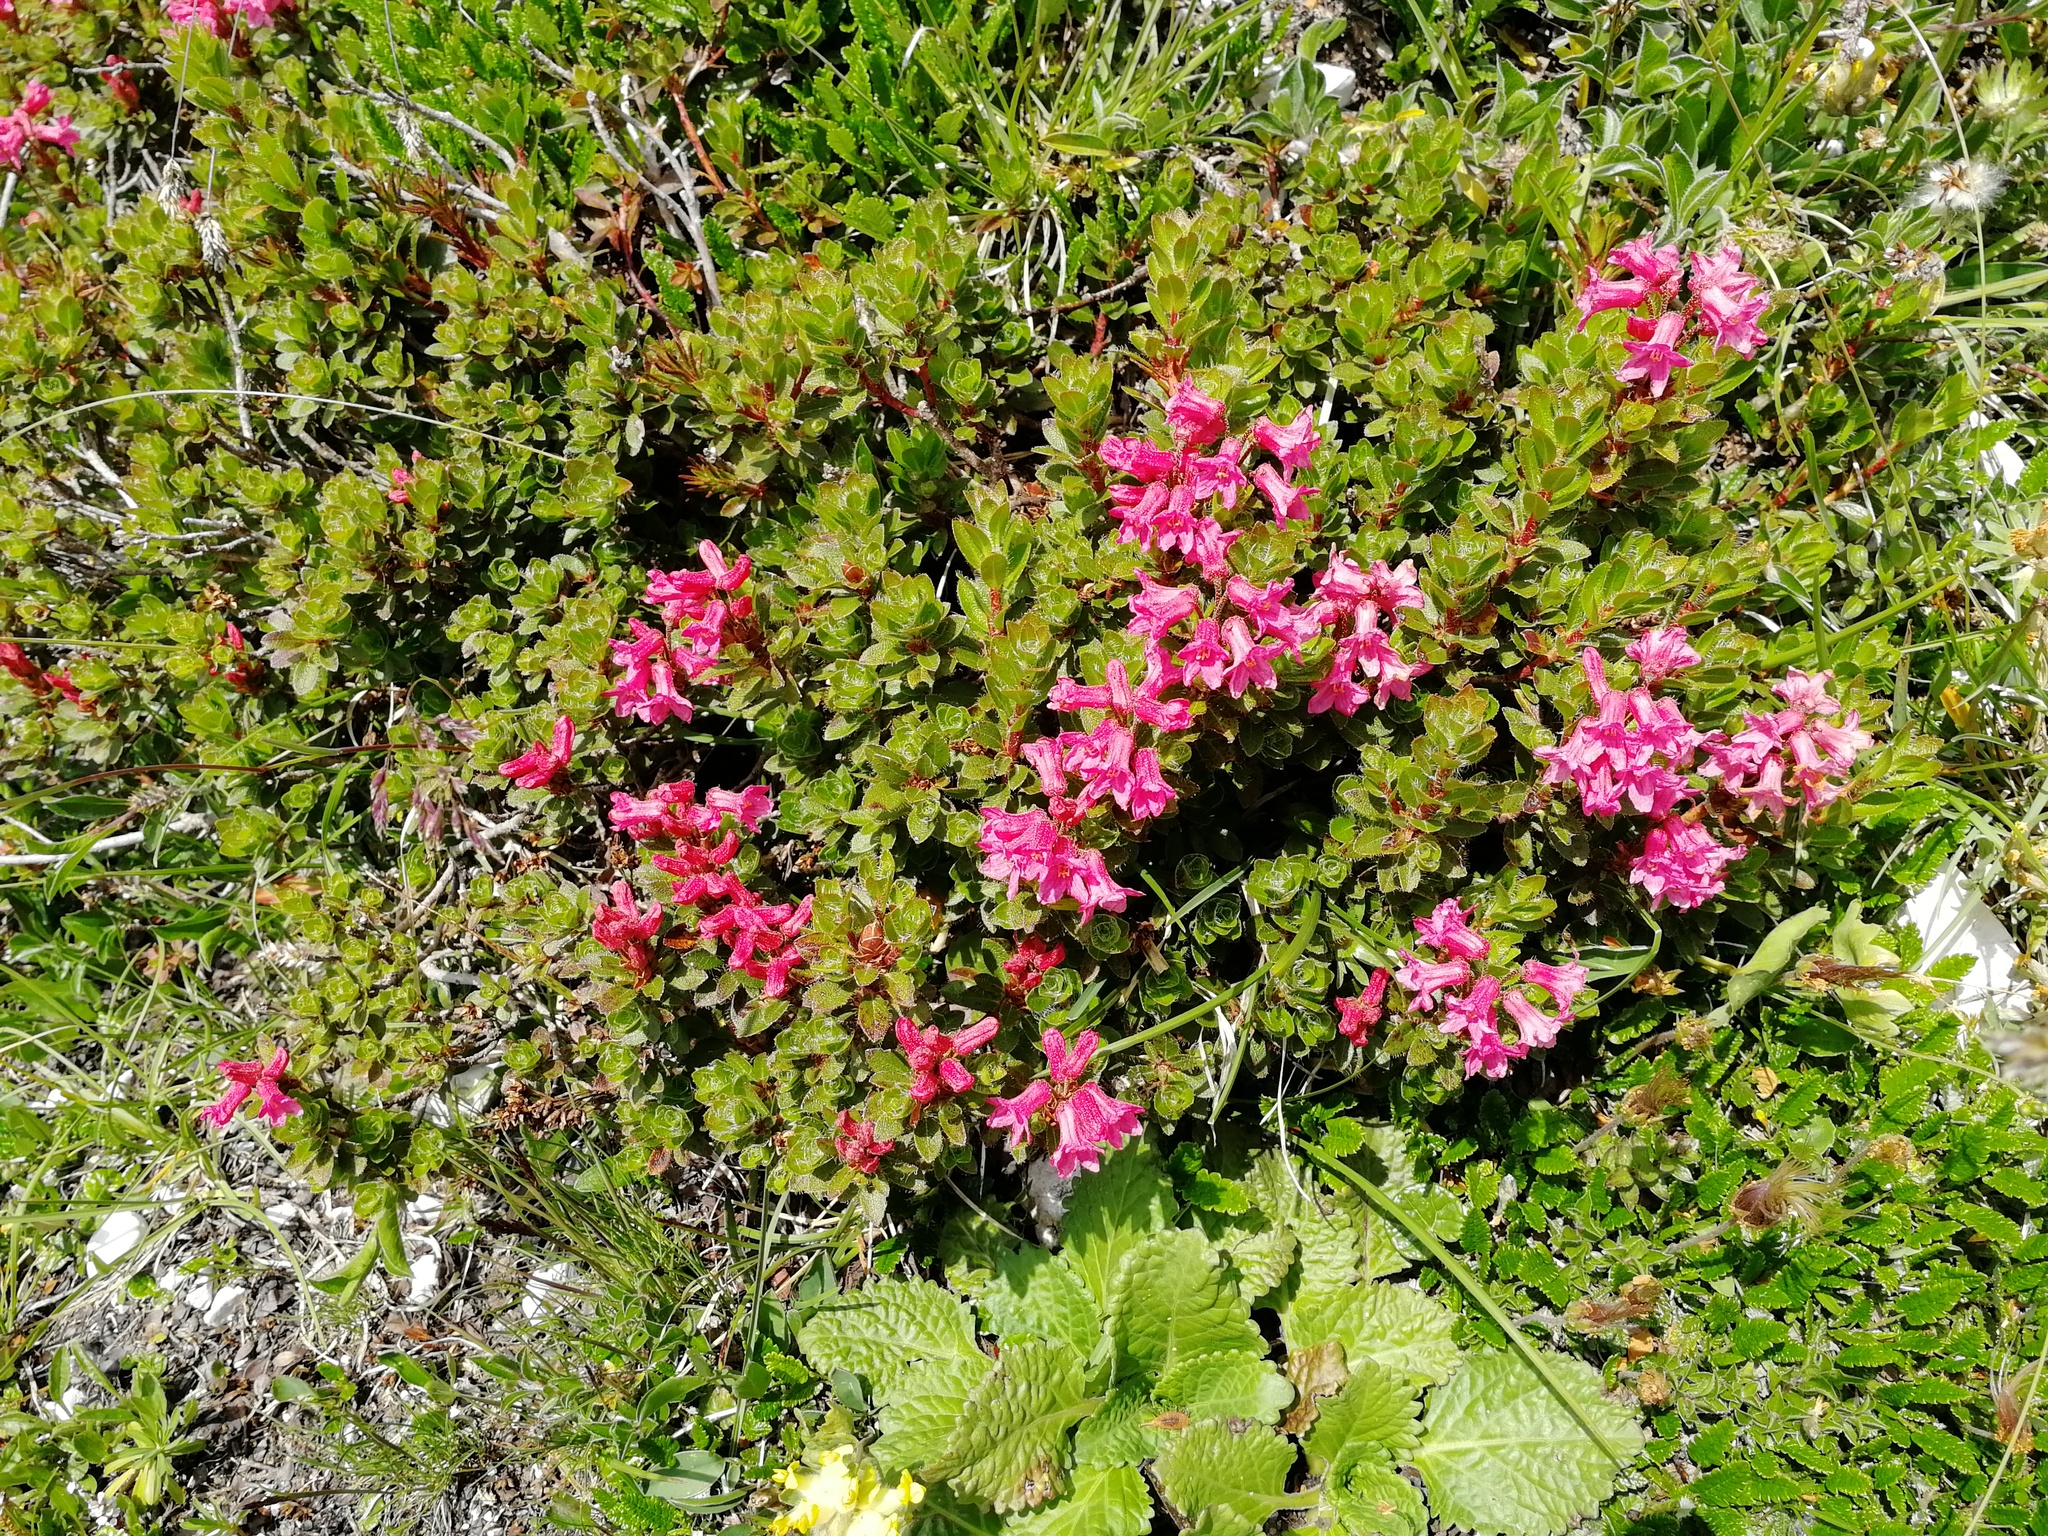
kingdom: Plantae
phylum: Tracheophyta
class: Magnoliopsida
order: Ericales
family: Ericaceae
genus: Rhododendron
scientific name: Rhododendron hirsutum
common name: Hairy alpenrose
